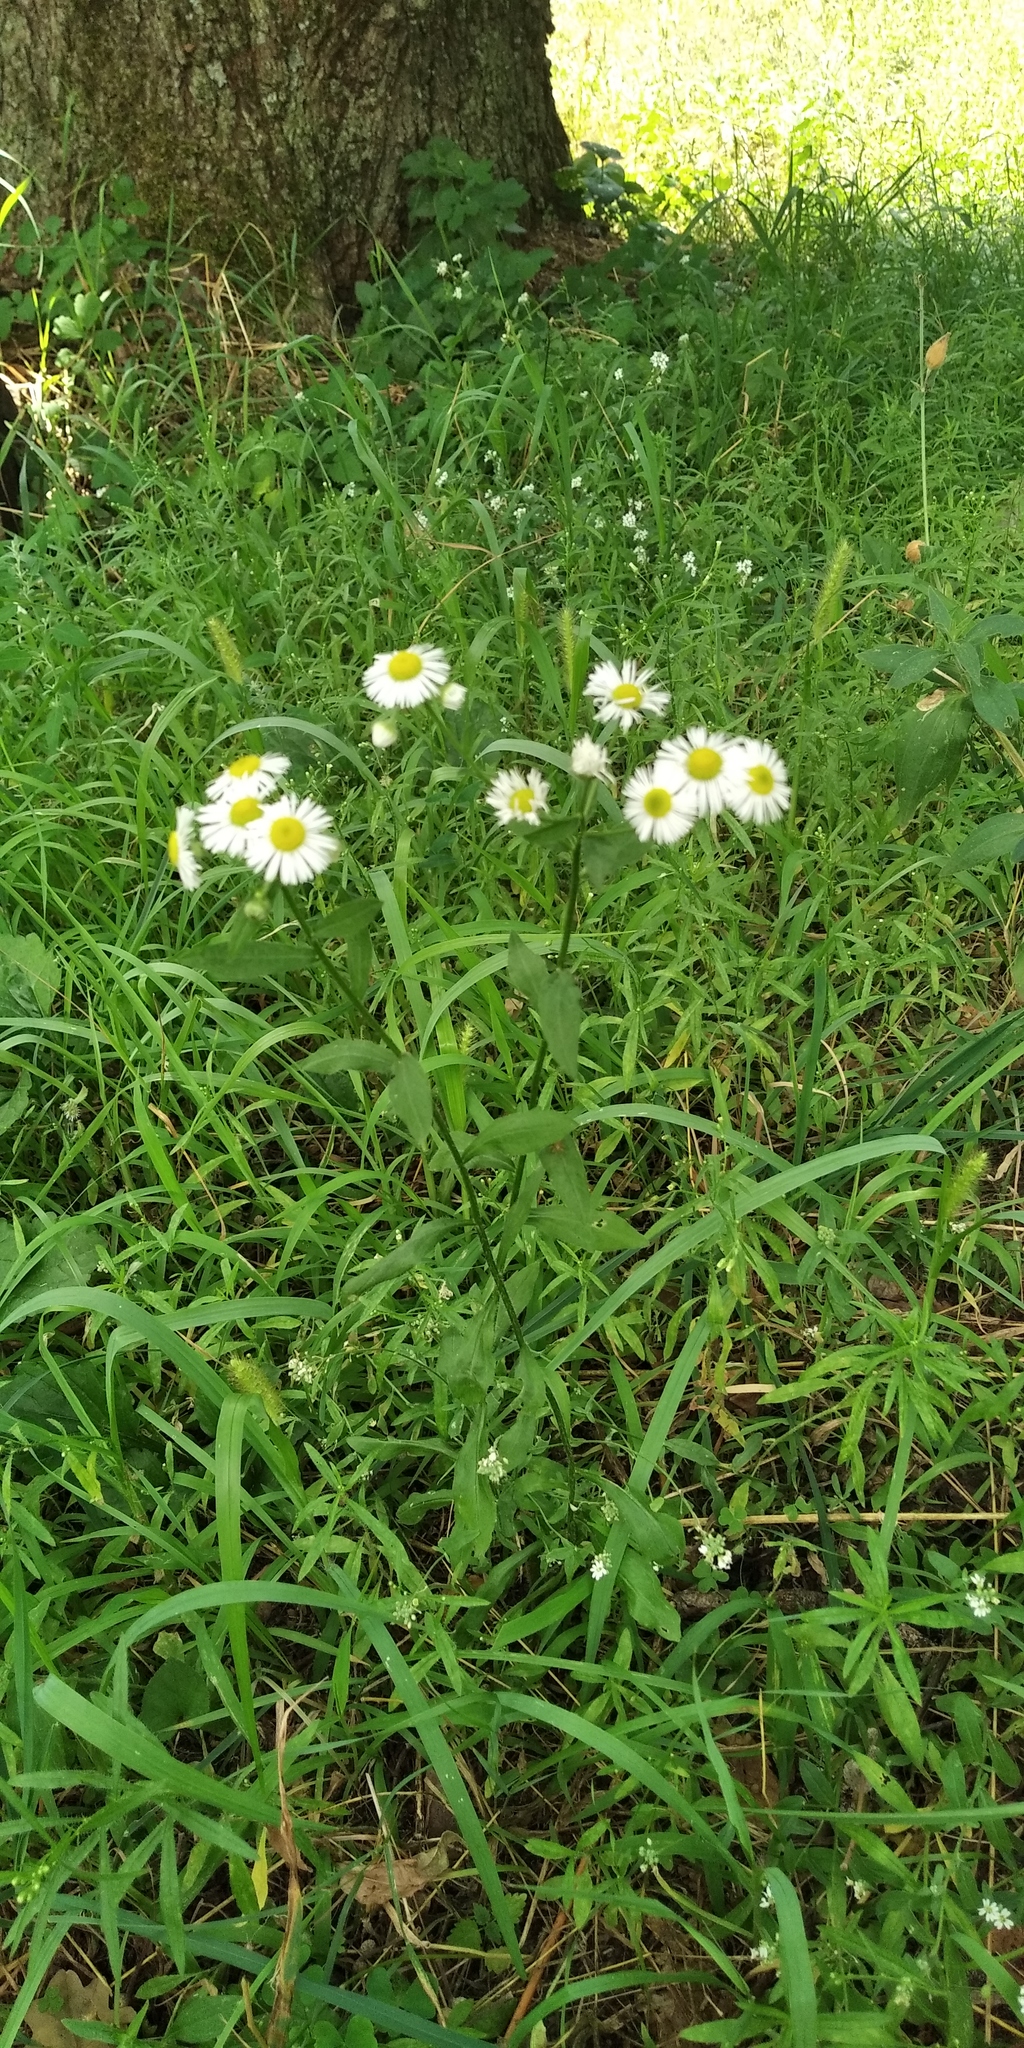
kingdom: Plantae
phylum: Tracheophyta
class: Magnoliopsida
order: Asterales
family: Asteraceae
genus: Erigeron
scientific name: Erigeron annuus
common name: Tall fleabane
